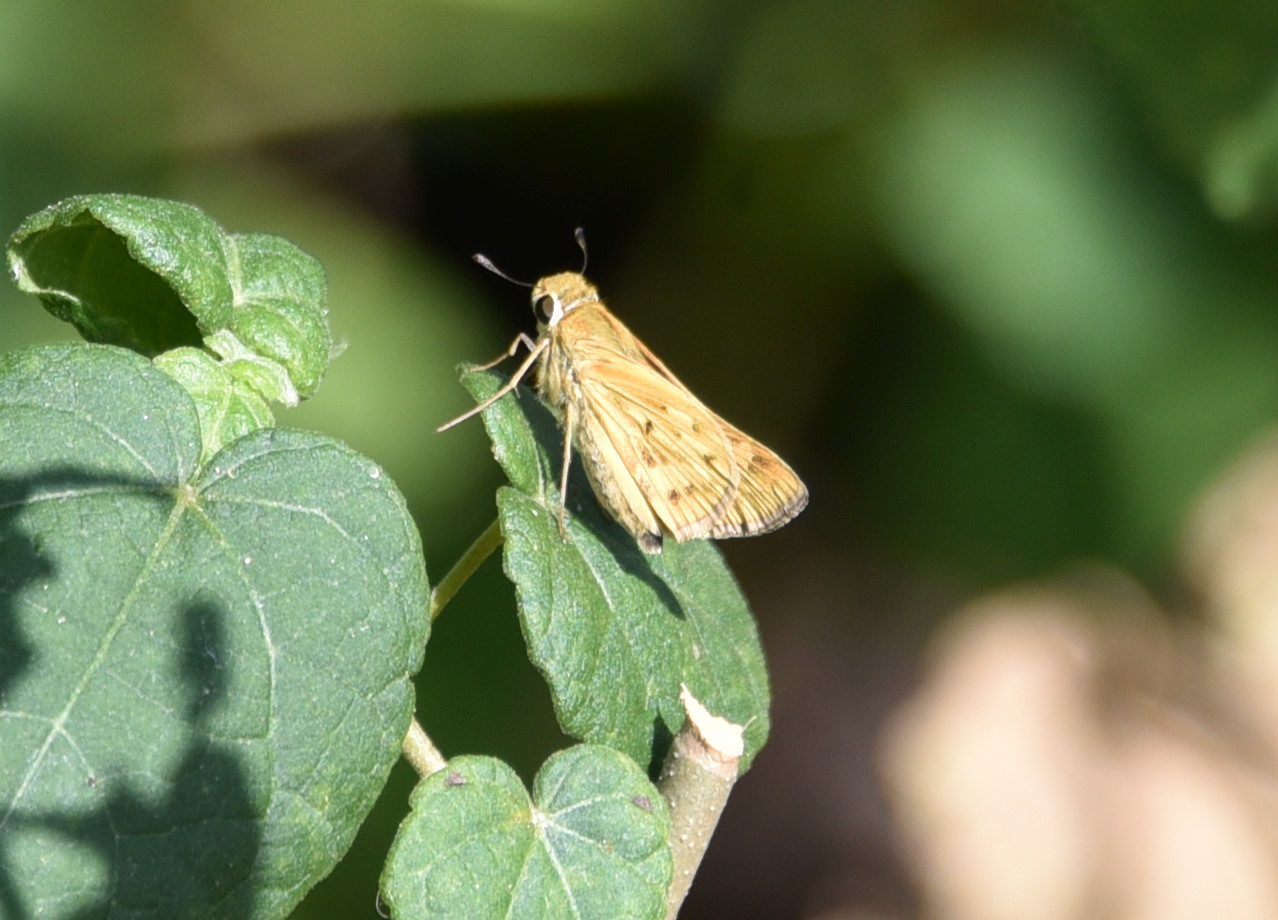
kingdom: Animalia
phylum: Arthropoda
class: Insecta
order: Lepidoptera
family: Hesperiidae
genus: Hylephila
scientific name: Hylephila phyleus
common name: Fiery skipper
